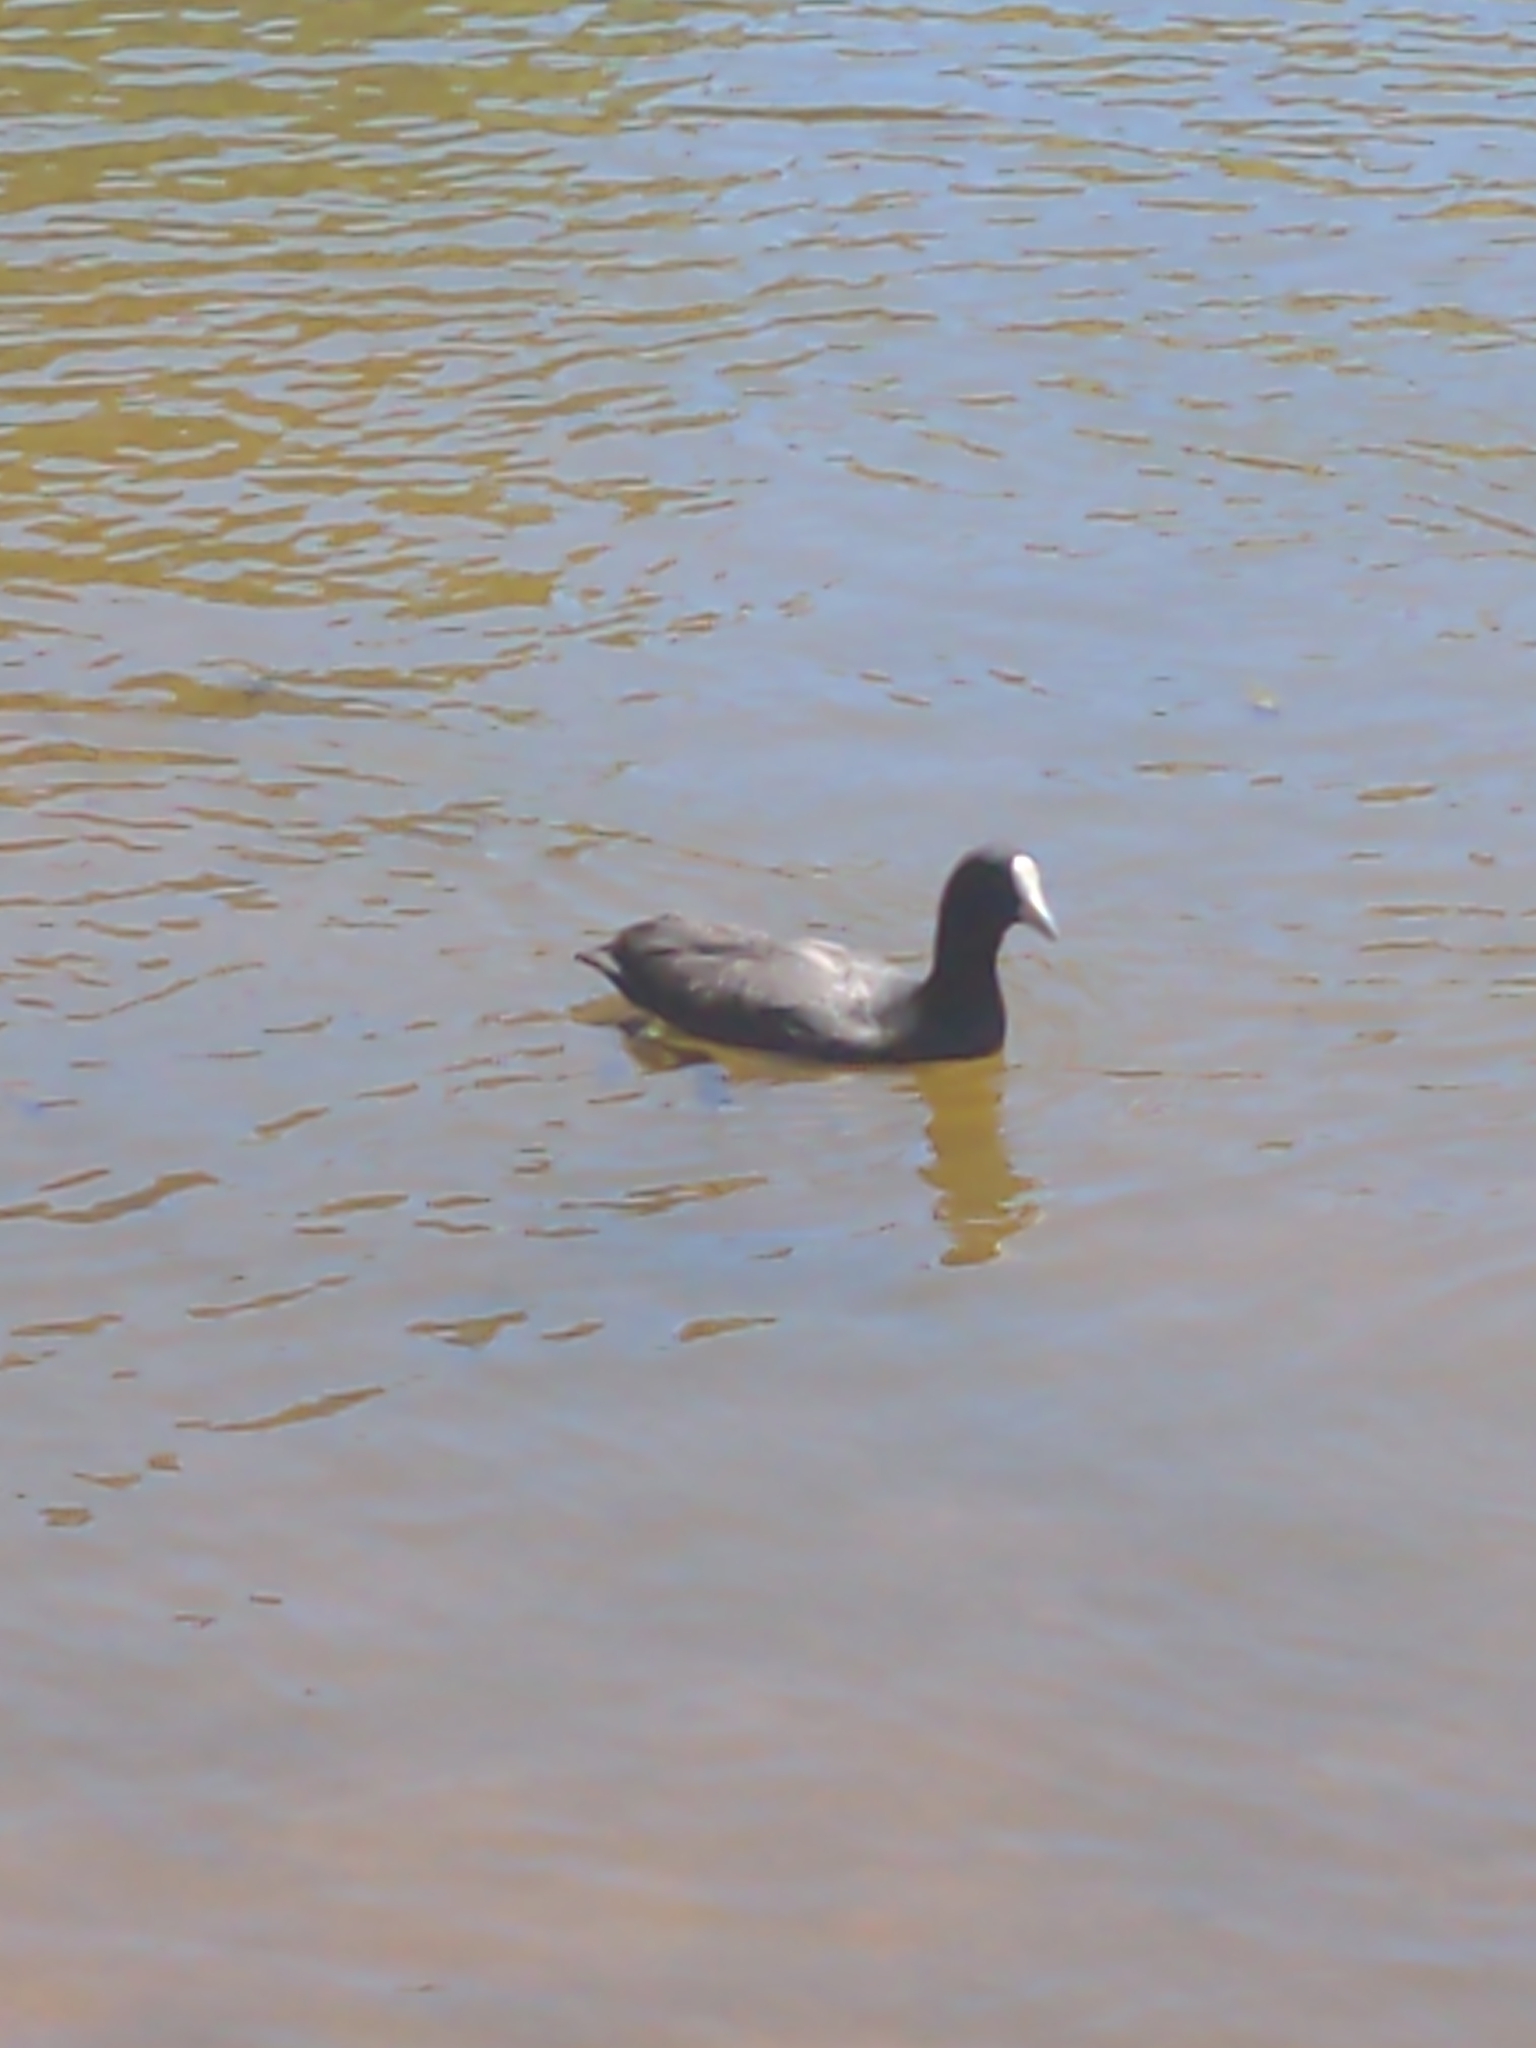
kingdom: Animalia
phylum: Chordata
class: Aves
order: Gruiformes
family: Rallidae
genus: Fulica
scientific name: Fulica atra
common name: Eurasian coot
